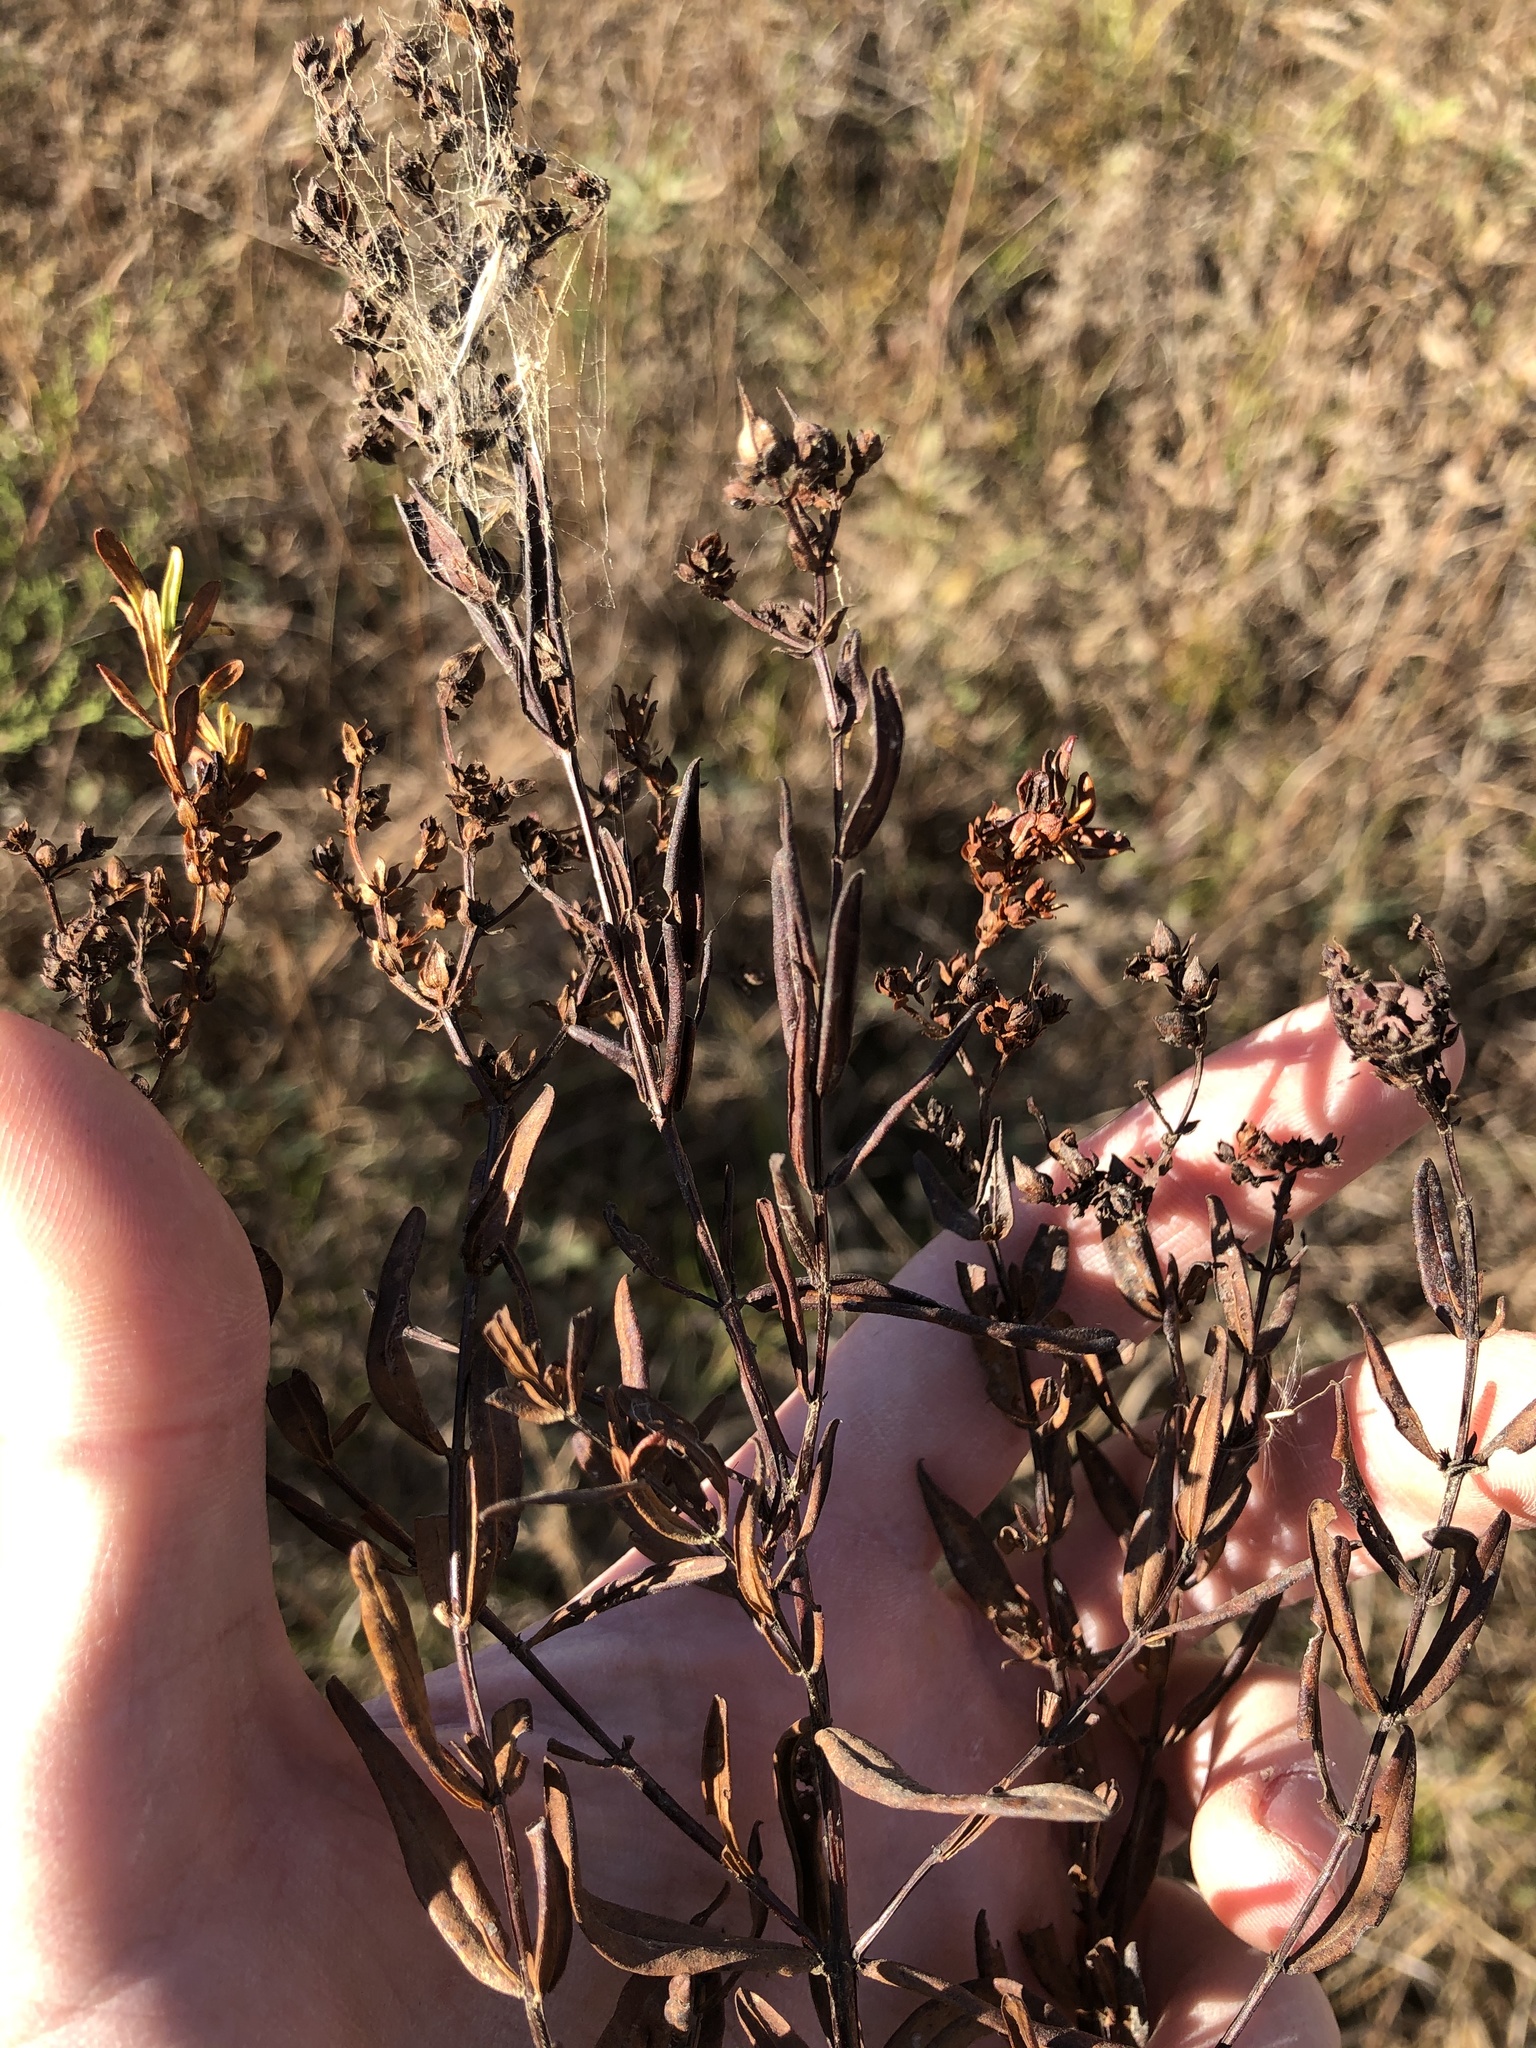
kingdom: Plantae
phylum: Tracheophyta
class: Magnoliopsida
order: Malpighiales
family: Hypericaceae
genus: Hypericum
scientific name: Hypericum sphaerocarpum
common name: Round-fruited st. john's-wort
